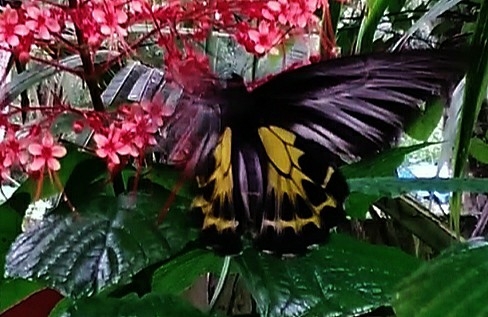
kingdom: Animalia
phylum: Arthropoda
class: Insecta
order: Lepidoptera
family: Papilionidae
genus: Troides
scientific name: Troides minos
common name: Malabar birdwing
